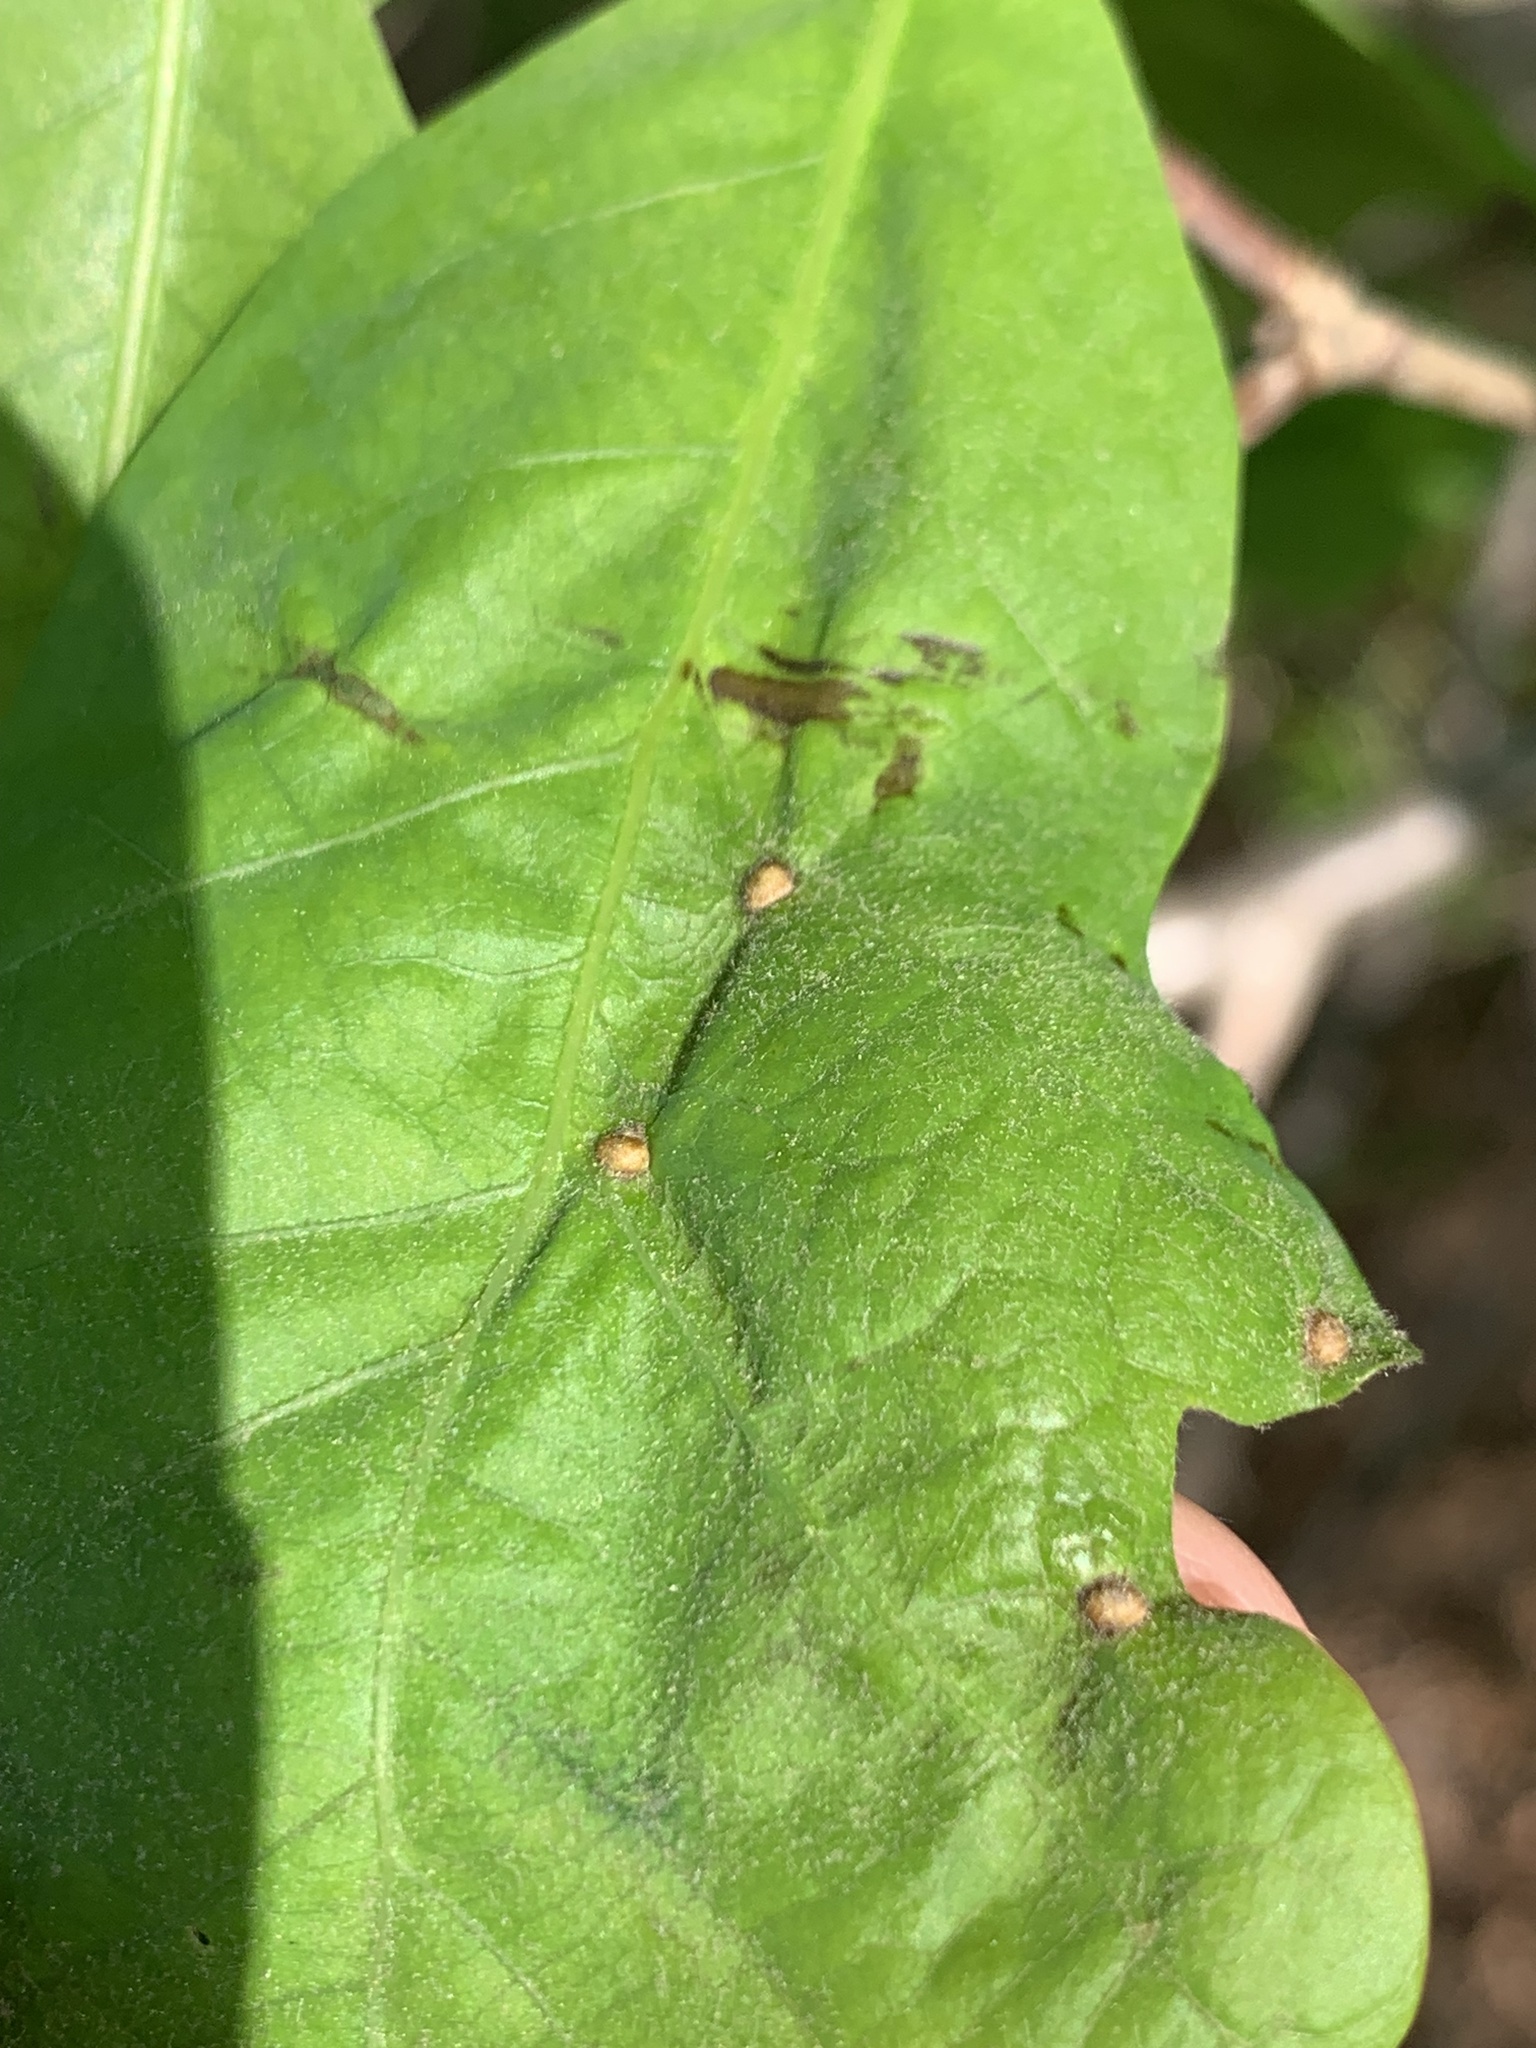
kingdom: Animalia
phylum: Arthropoda
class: Insecta
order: Hymenoptera
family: Cynipidae
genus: Neuroterus
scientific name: Neuroterus quercusverrucarum
